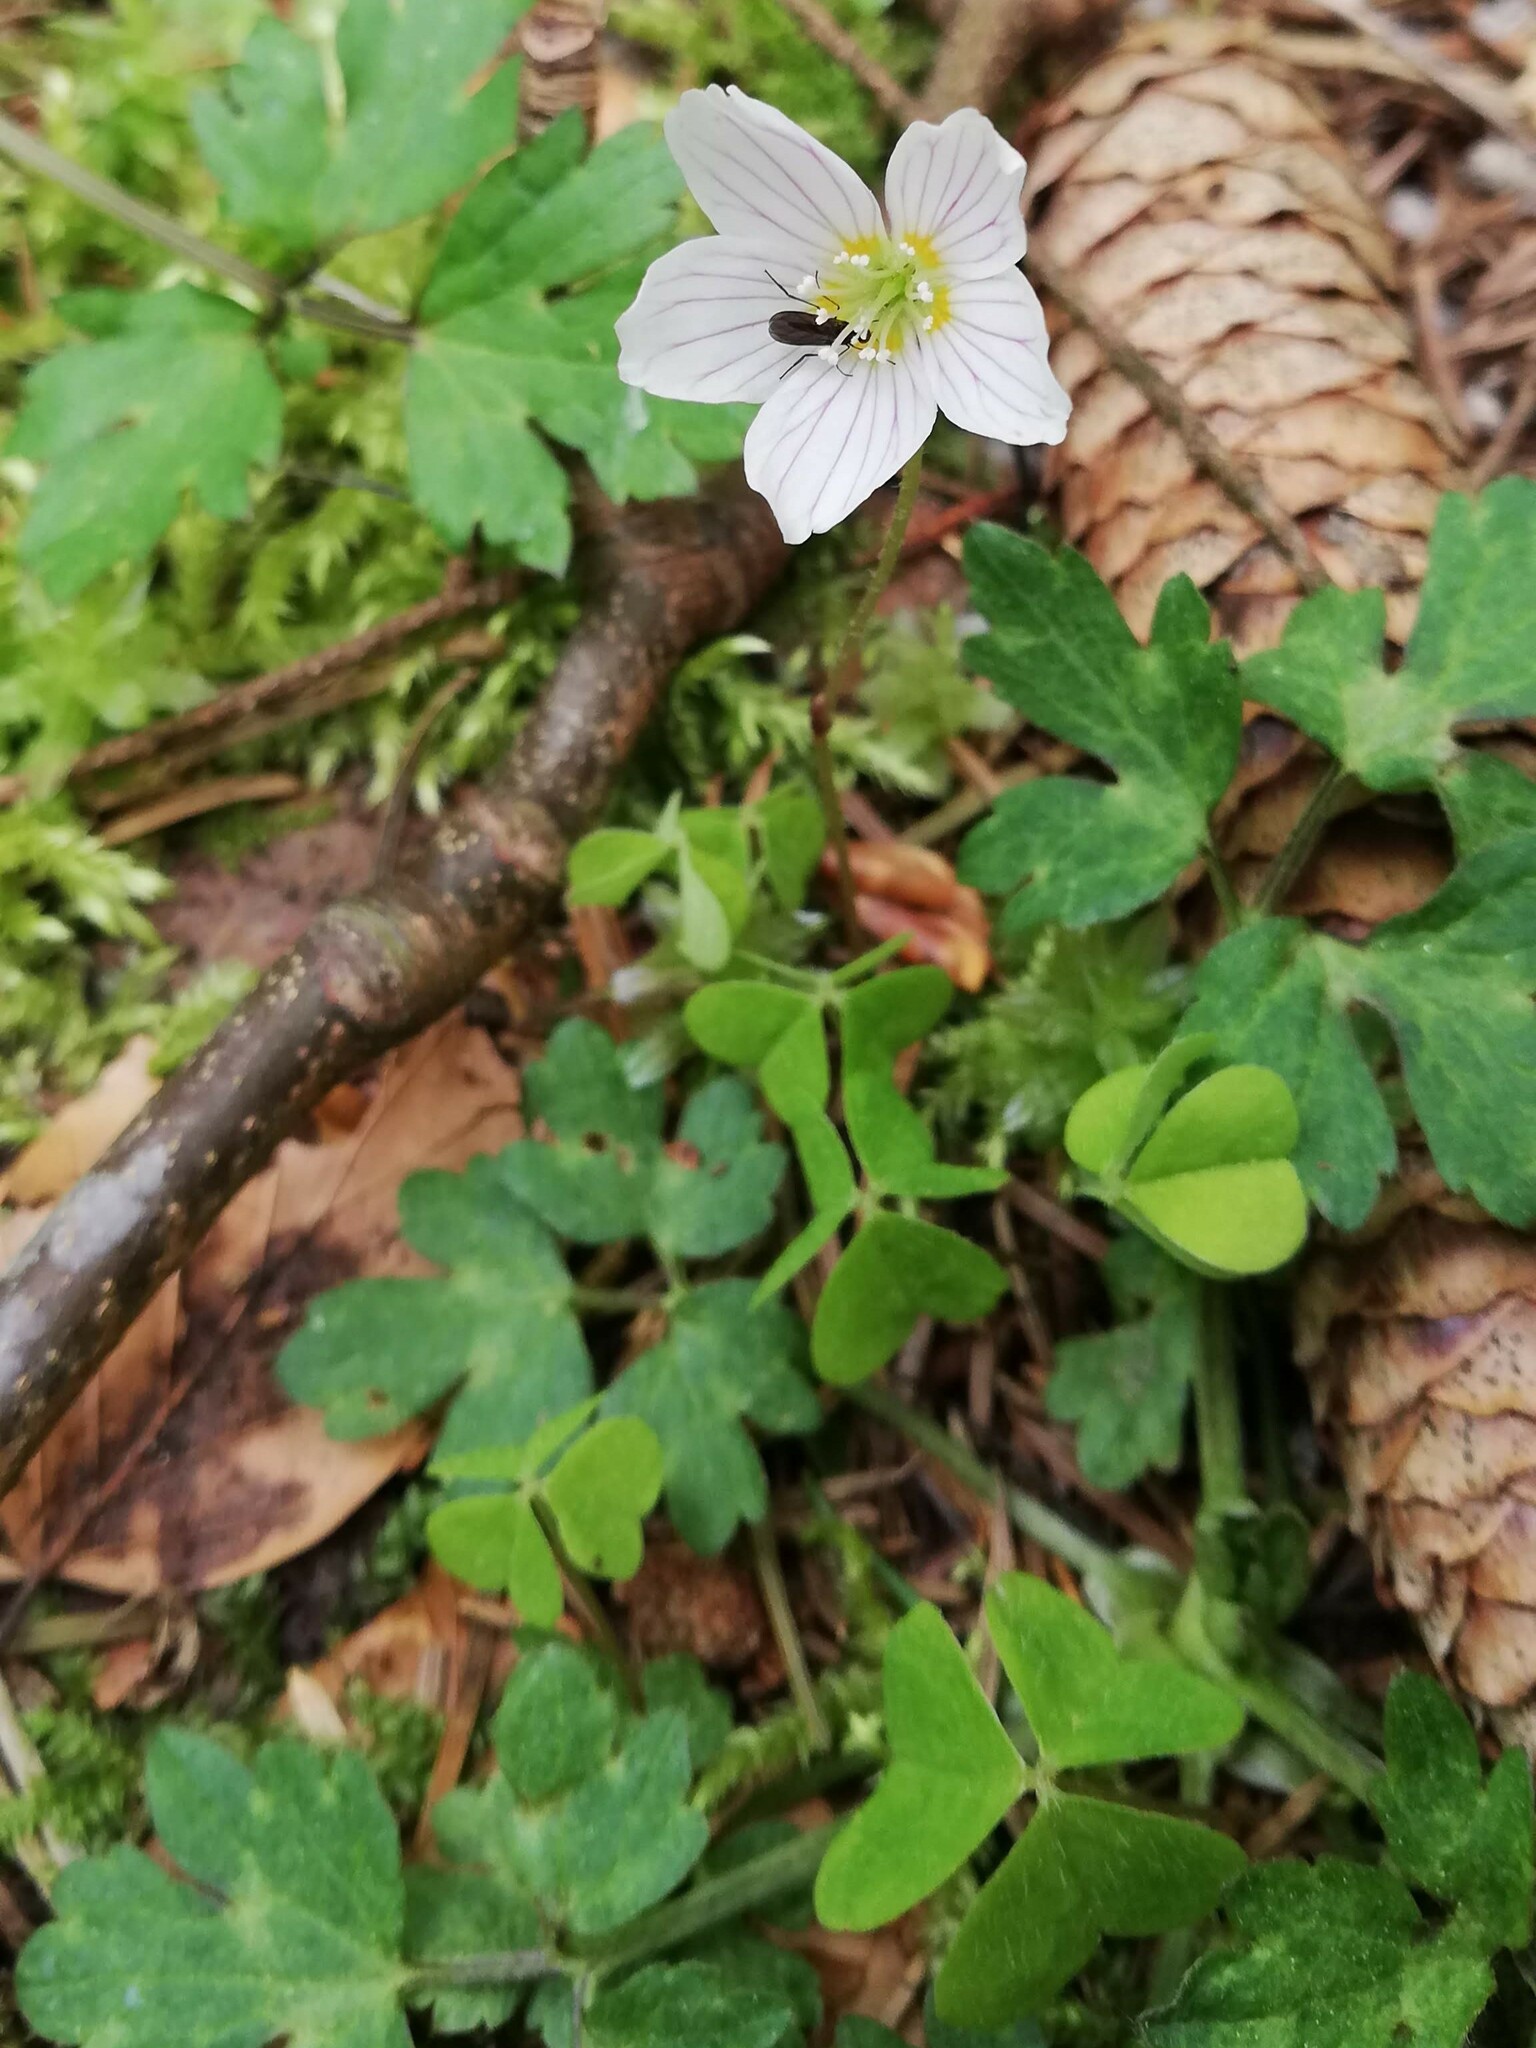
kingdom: Plantae
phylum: Tracheophyta
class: Magnoliopsida
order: Oxalidales
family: Oxalidaceae
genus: Oxalis
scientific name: Oxalis acetosella
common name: Wood-sorrel
